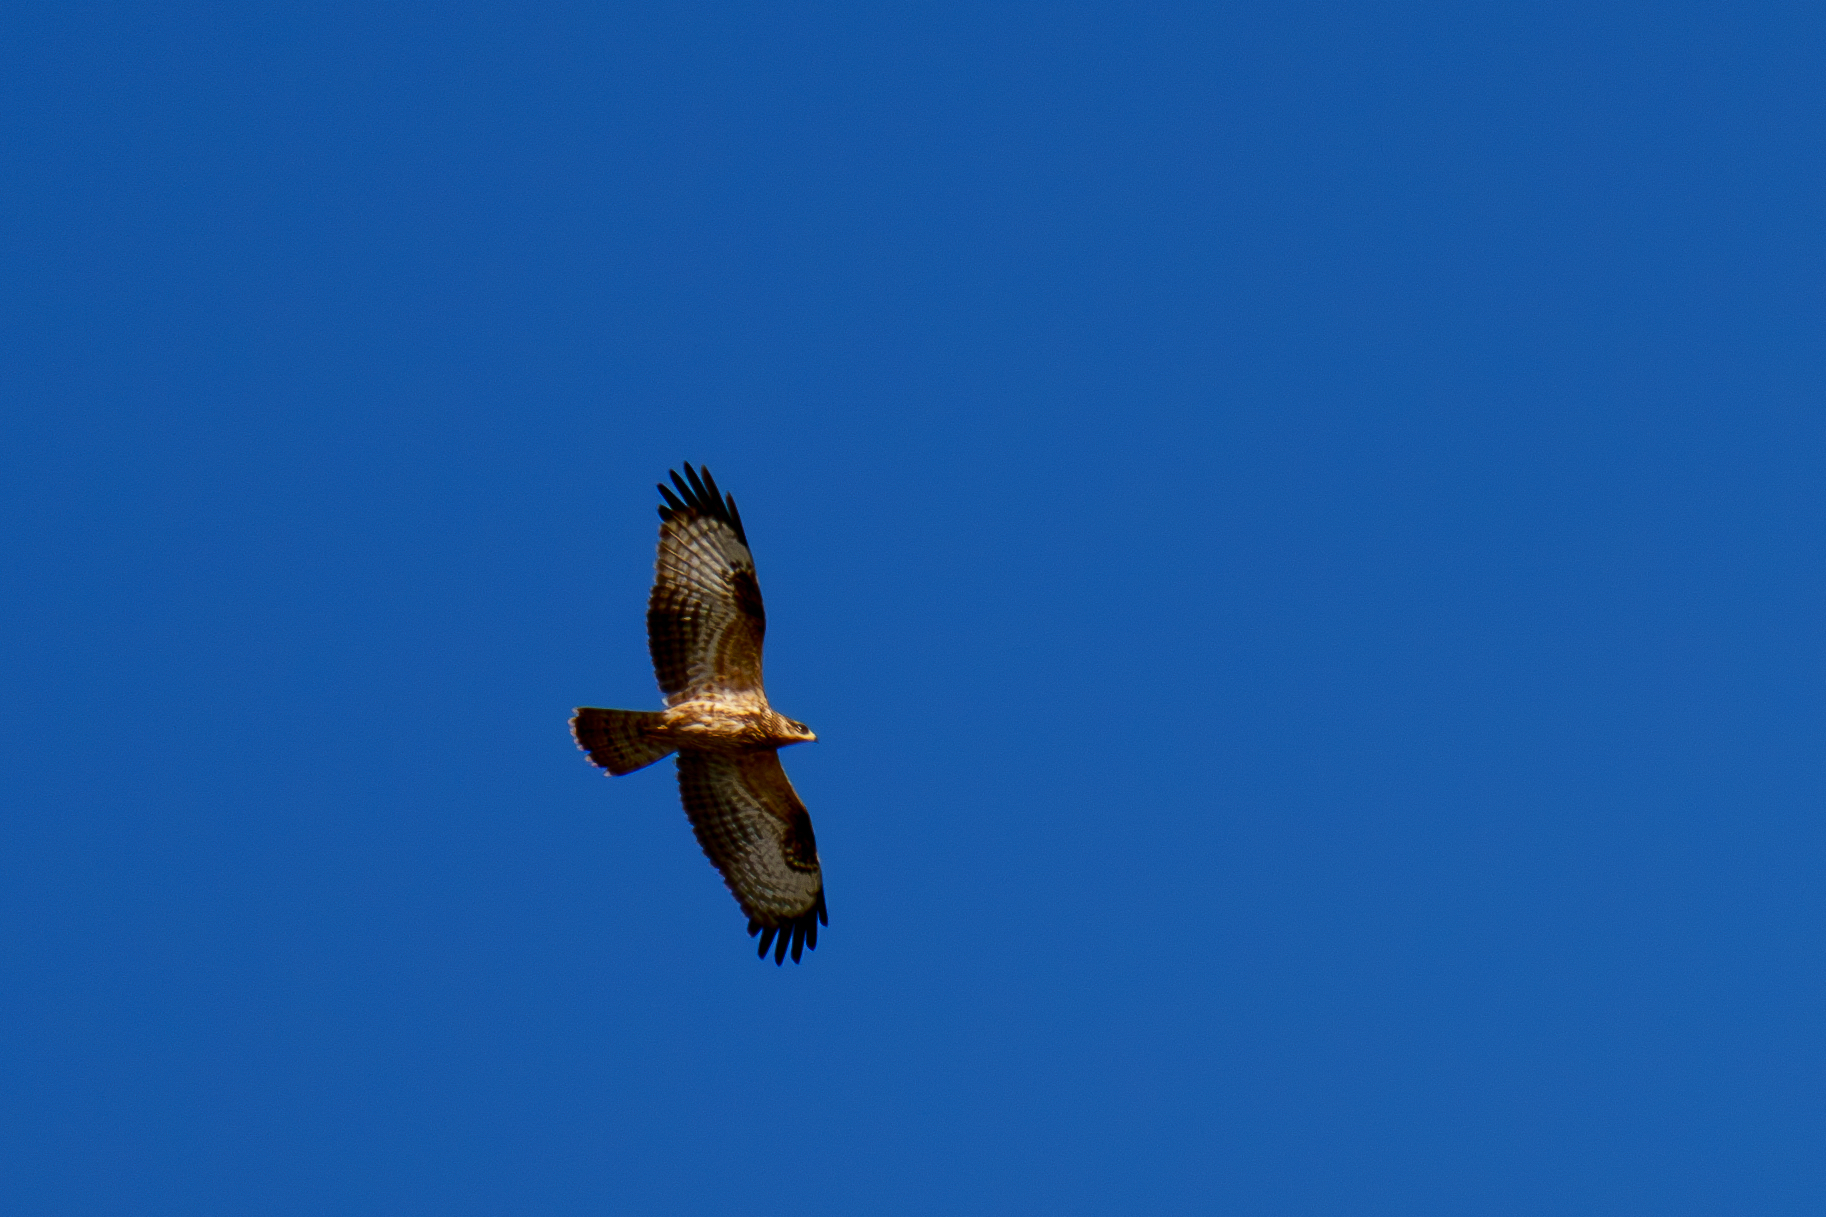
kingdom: Animalia
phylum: Chordata
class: Aves
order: Accipitriformes
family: Accipitridae
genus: Pernis
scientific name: Pernis apivorus
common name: European honey buzzard
